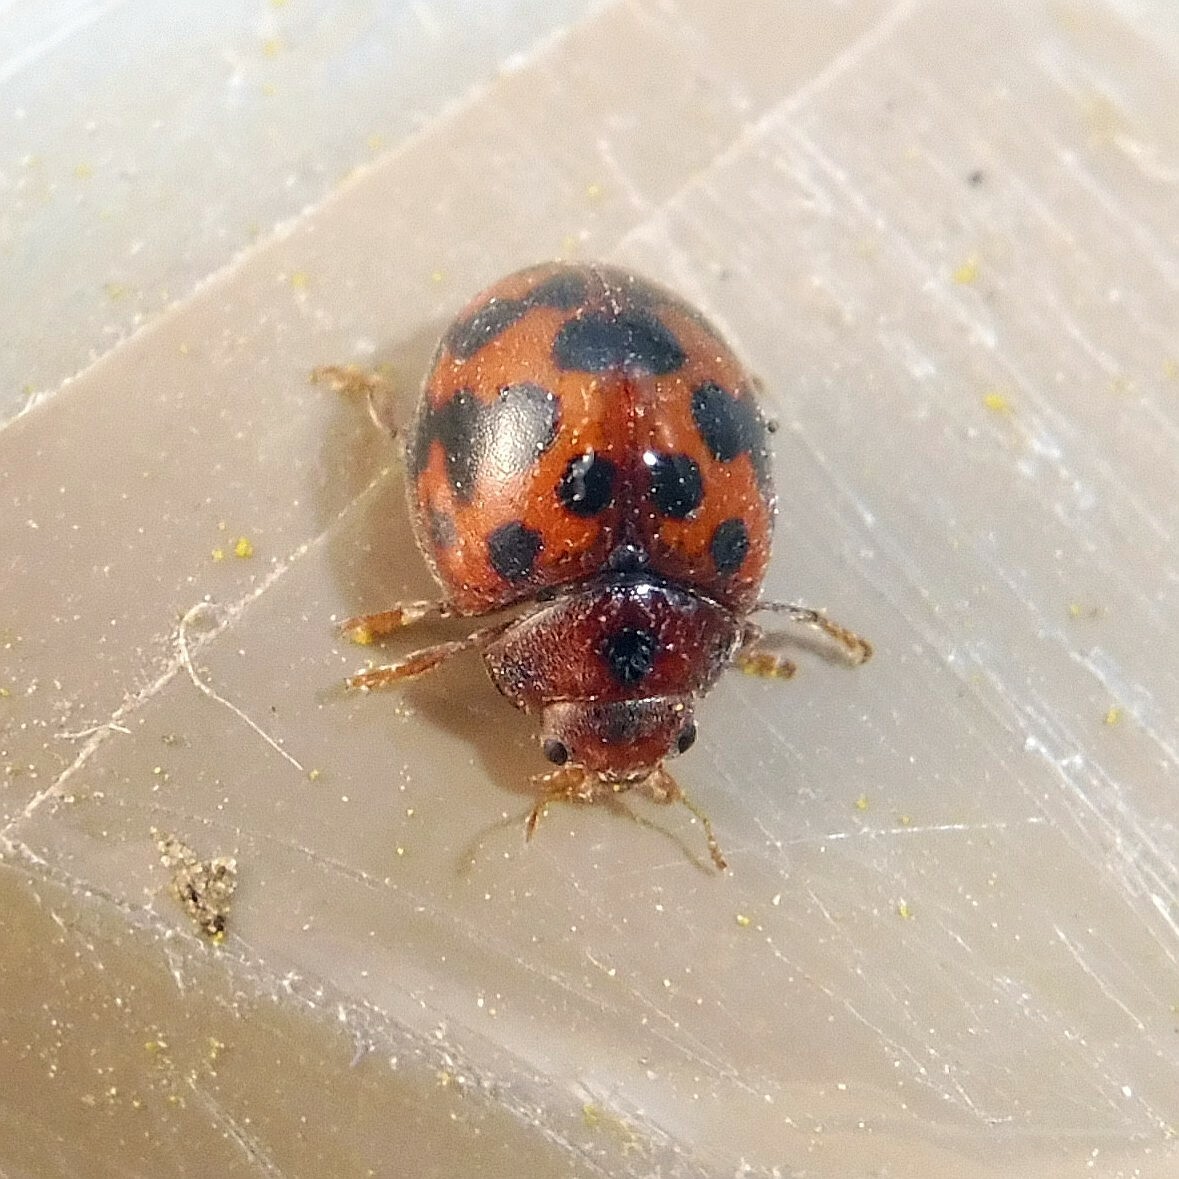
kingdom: Animalia
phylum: Arthropoda
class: Insecta
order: Coleoptera
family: Coccinellidae
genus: Subcoccinella
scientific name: Subcoccinella vigintiquatuorpunctata
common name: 24-spot ladybird
